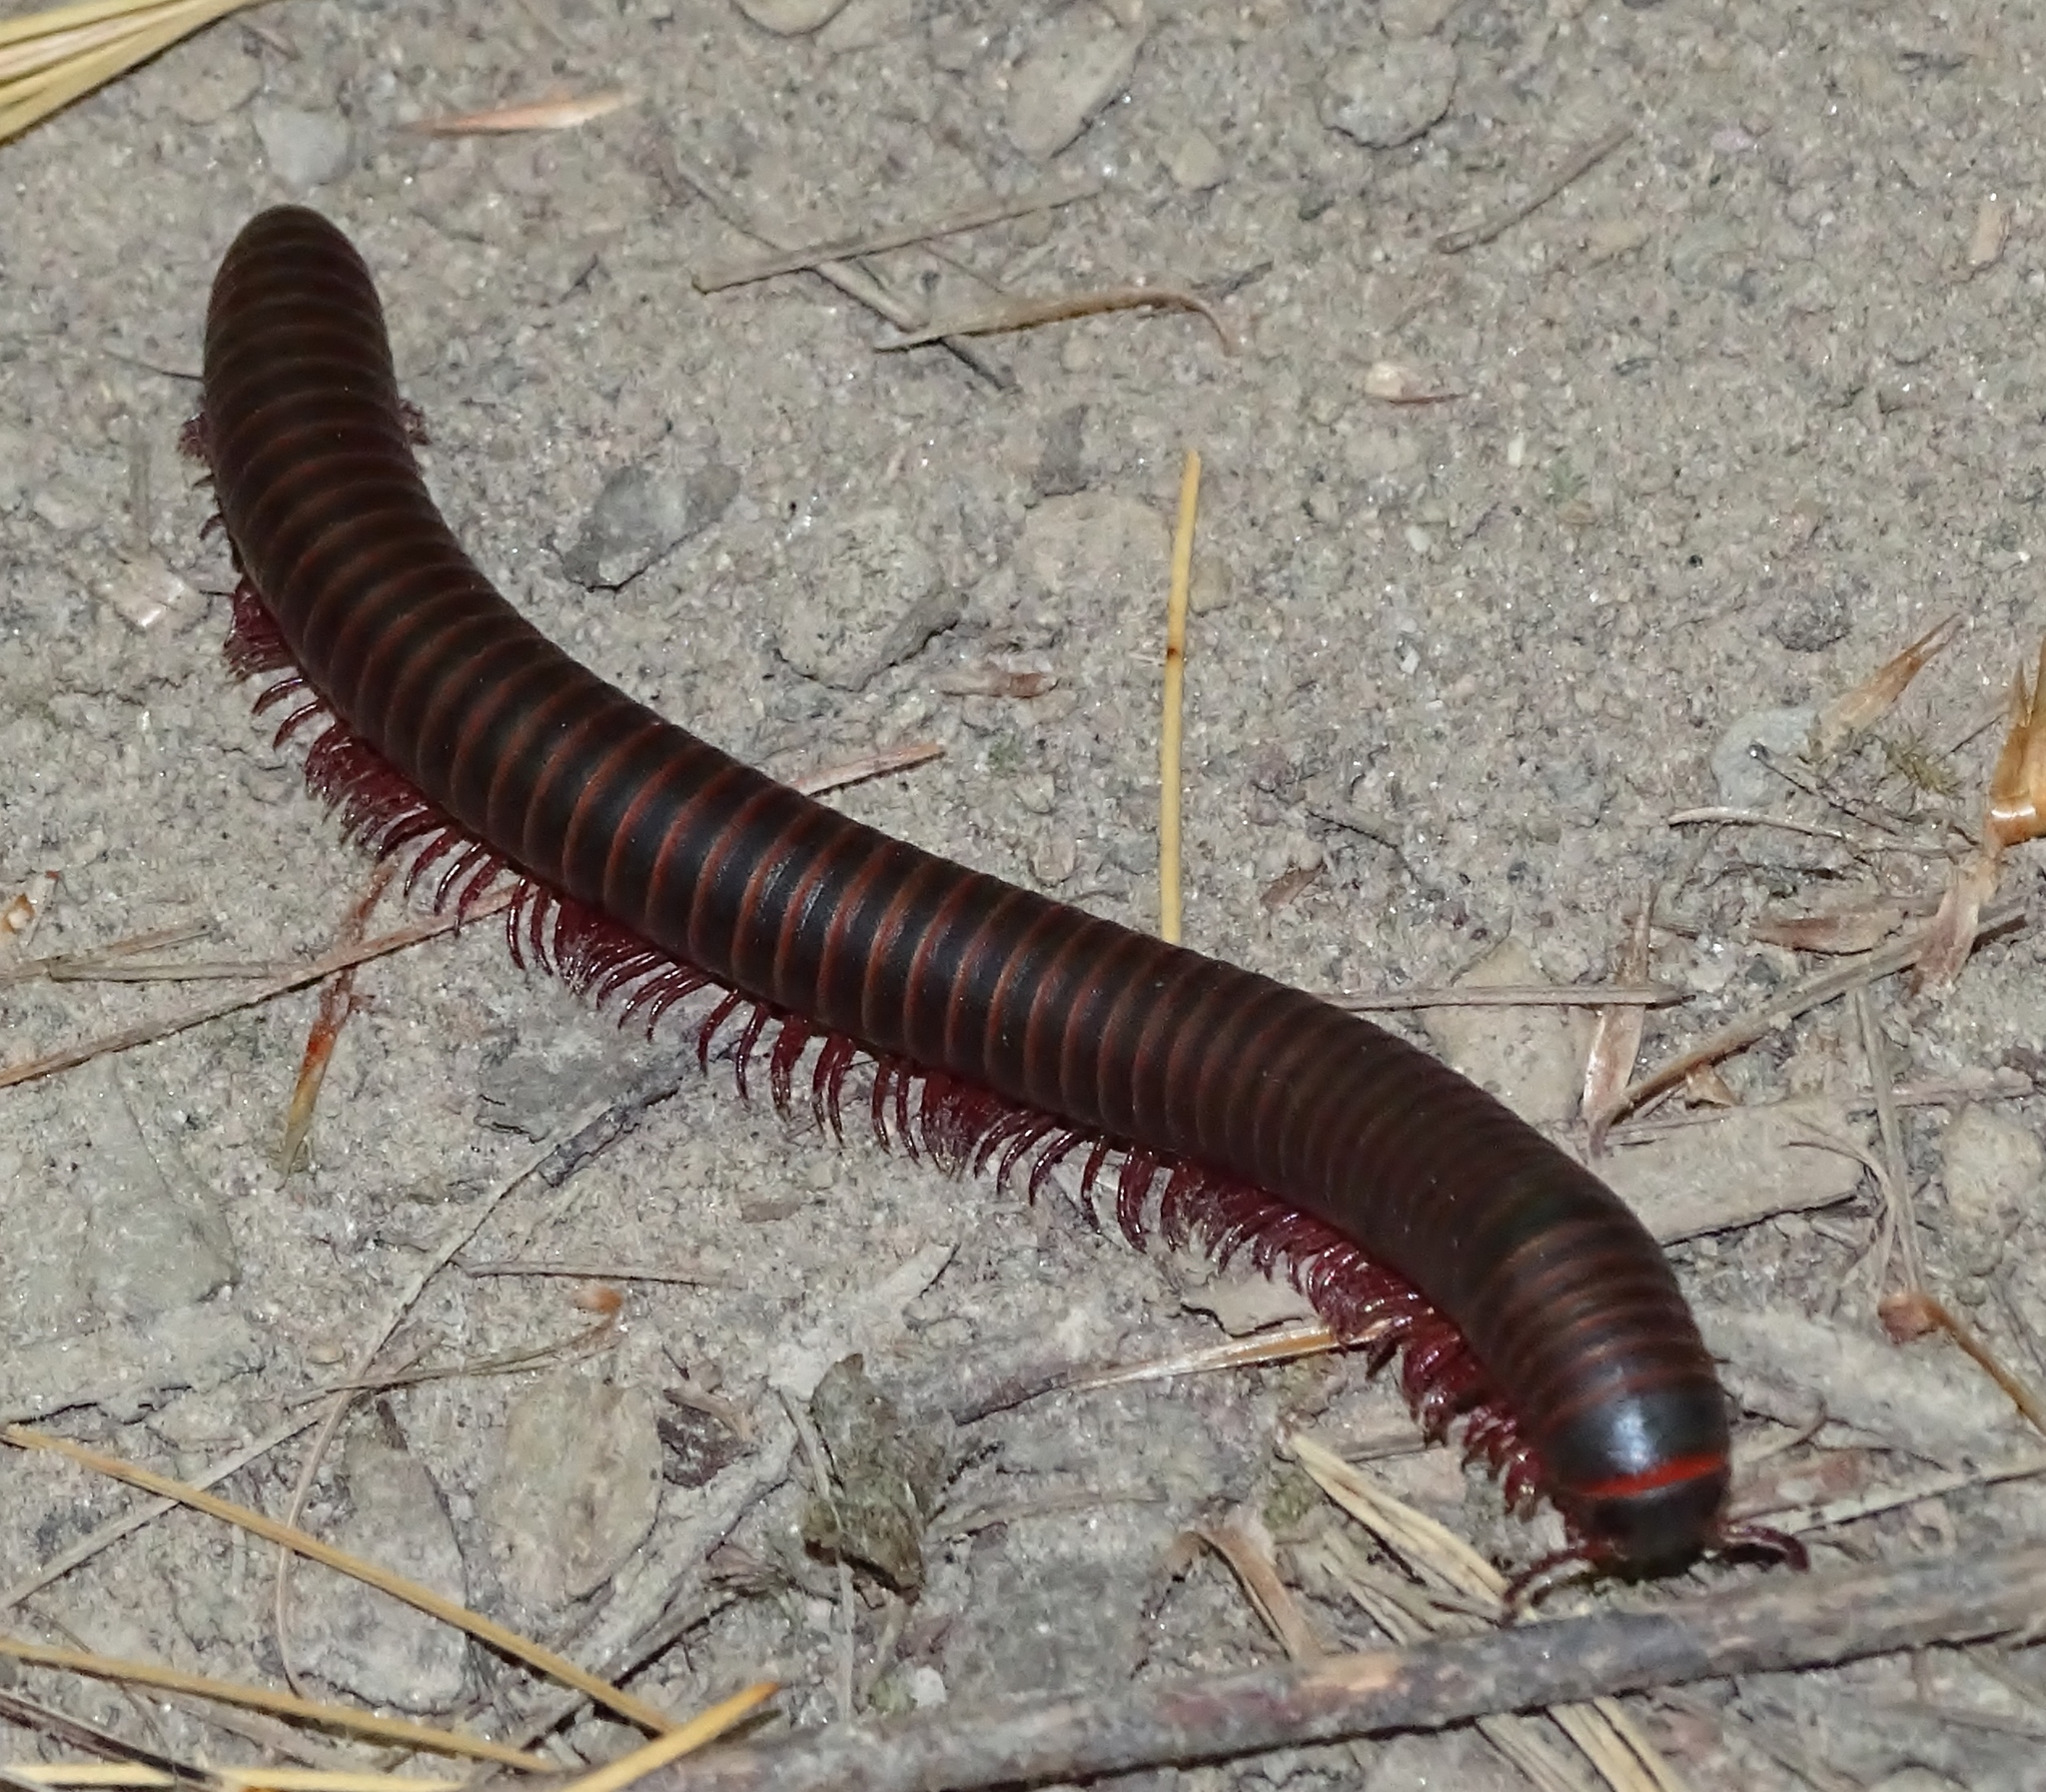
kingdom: Animalia
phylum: Arthropoda
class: Diplopoda
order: Spirobolida
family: Spirobolidae
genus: Narceus
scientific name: Narceus
